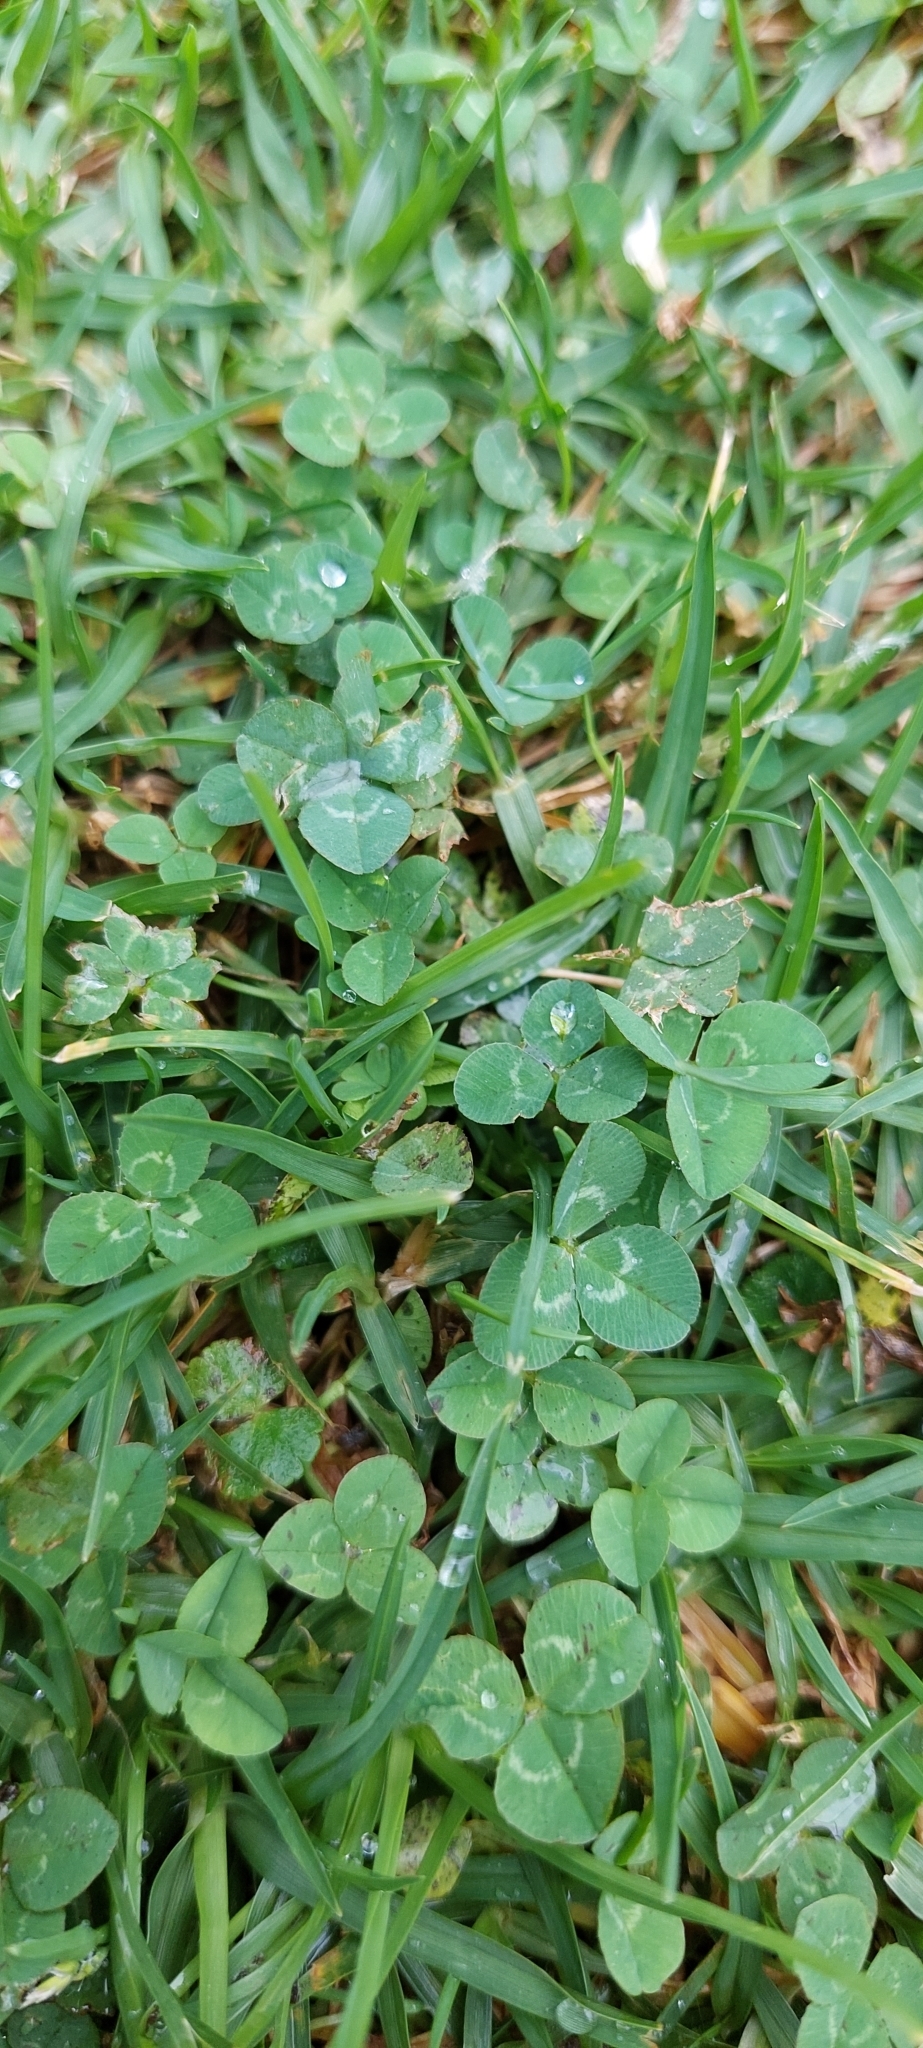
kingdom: Plantae
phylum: Tracheophyta
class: Magnoliopsida
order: Fabales
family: Fabaceae
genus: Trifolium
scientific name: Trifolium repens
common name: White clover
